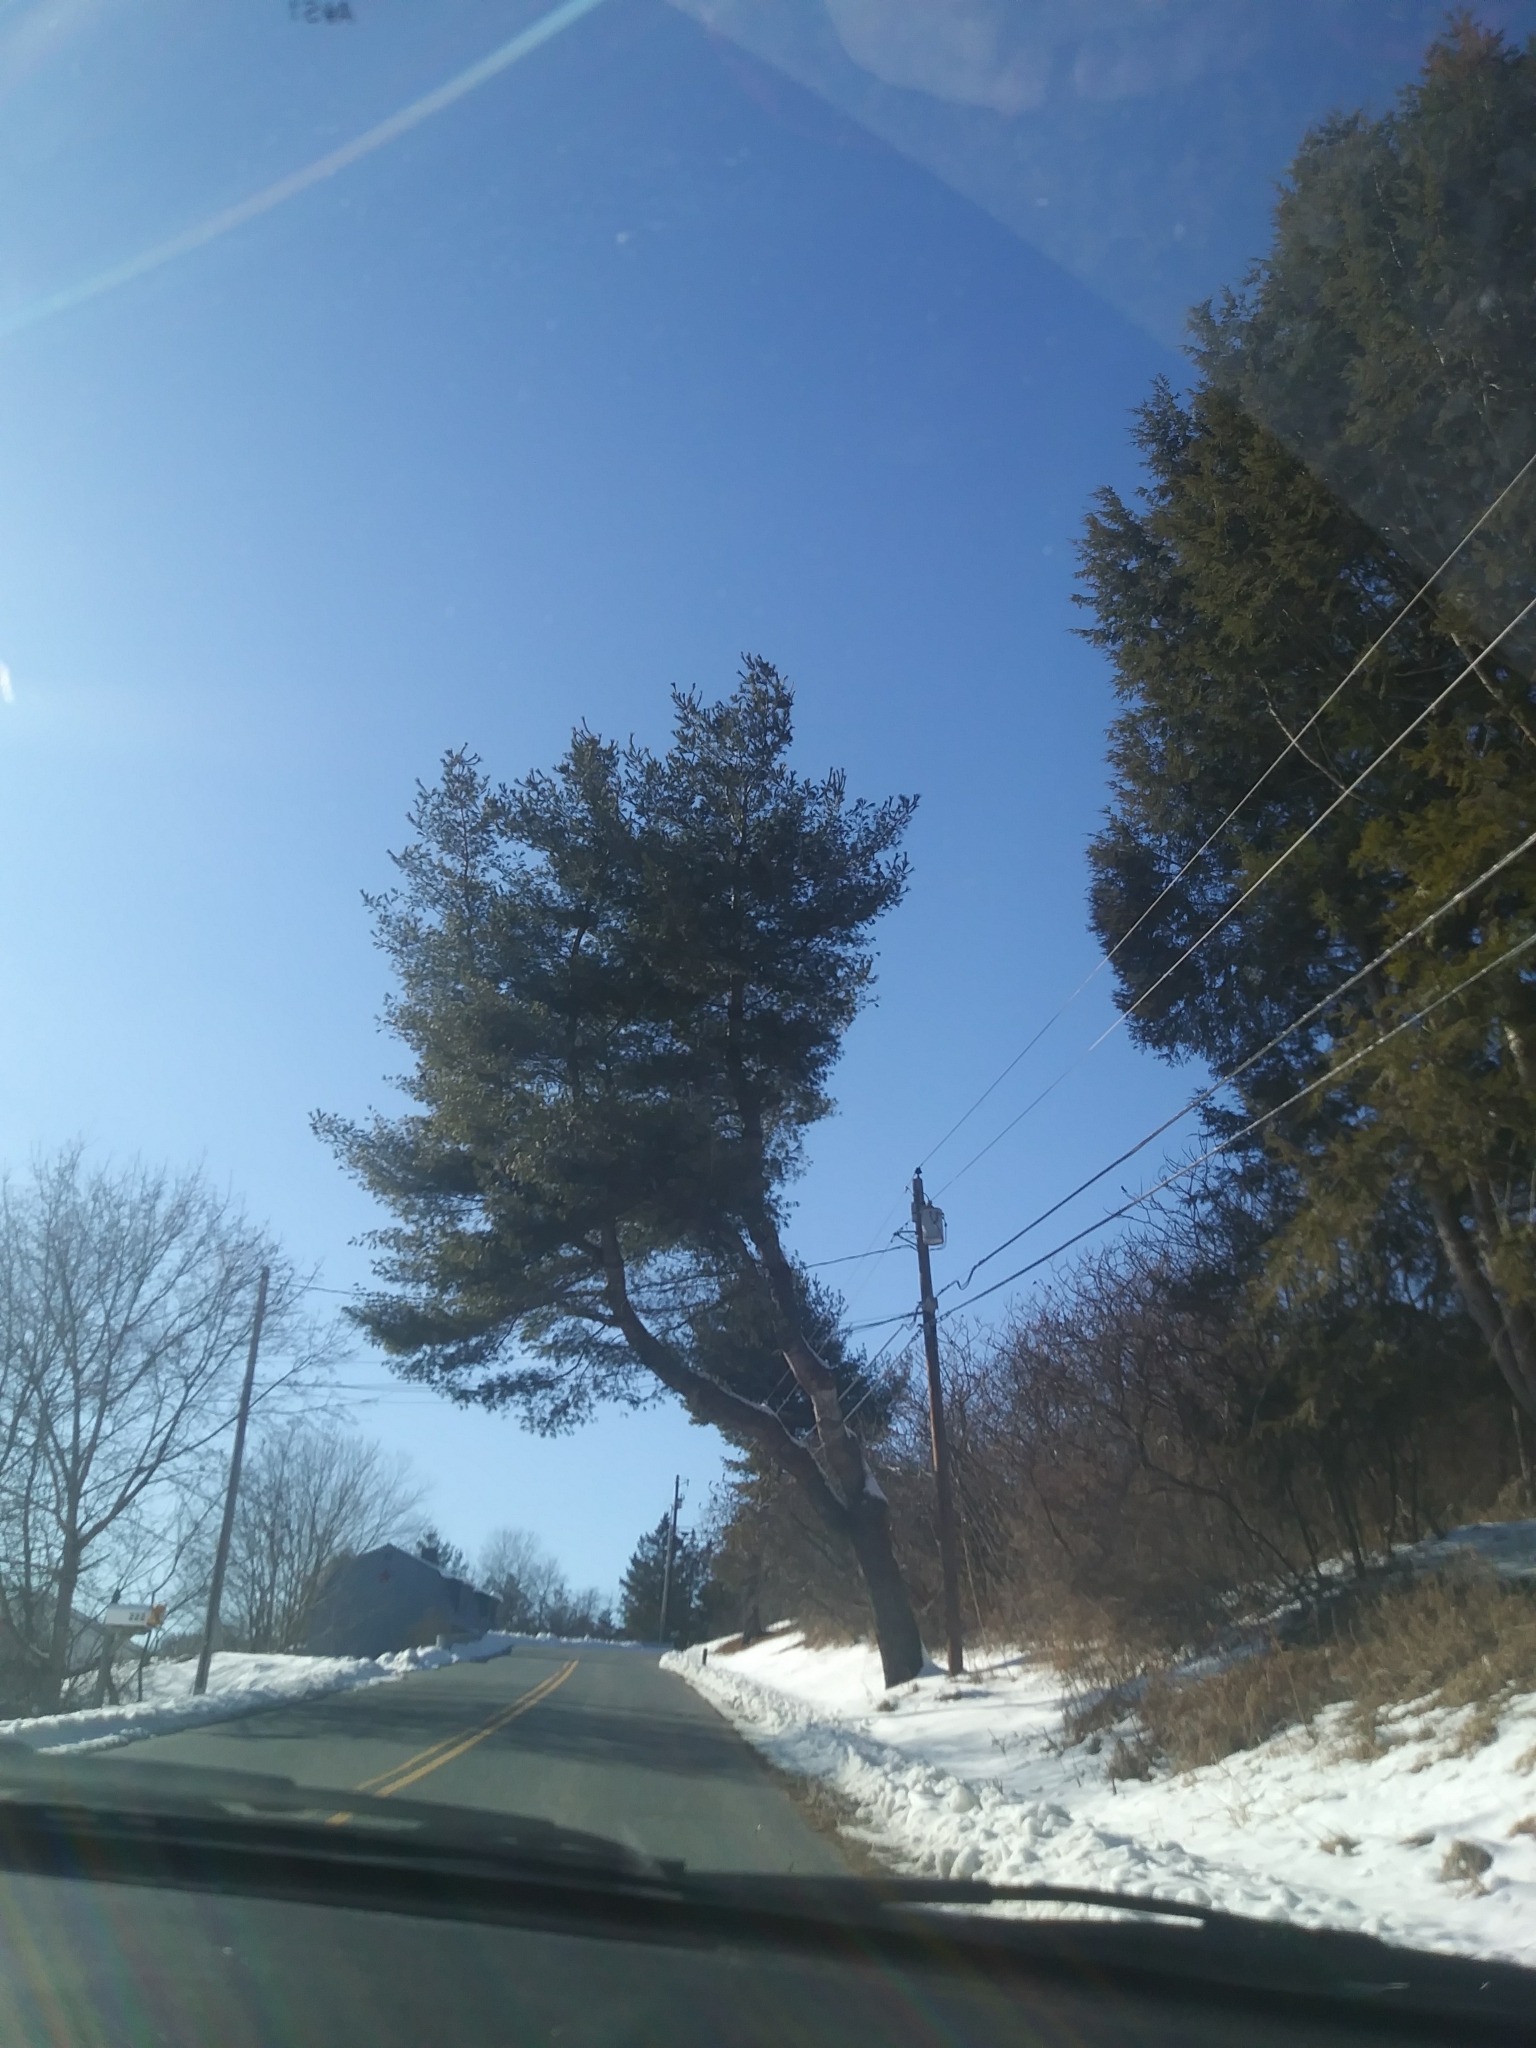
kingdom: Plantae
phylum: Tracheophyta
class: Pinopsida
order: Pinales
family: Pinaceae
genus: Pinus
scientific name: Pinus strobus
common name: Weymouth pine
